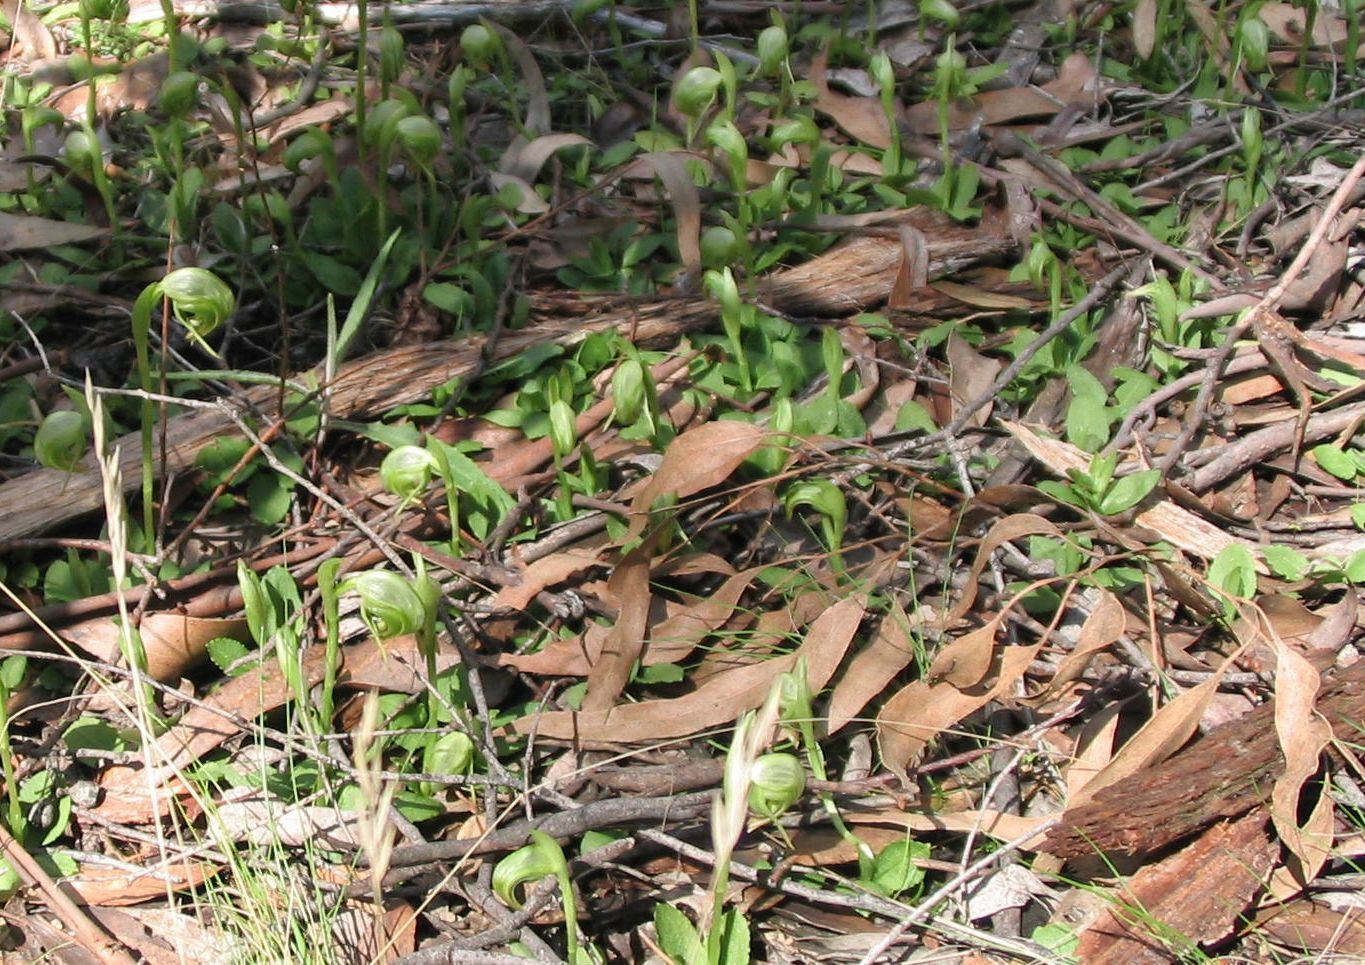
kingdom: Plantae
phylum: Tracheophyta
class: Liliopsida
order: Asparagales
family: Orchidaceae
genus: Pterostylis
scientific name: Pterostylis nutans
